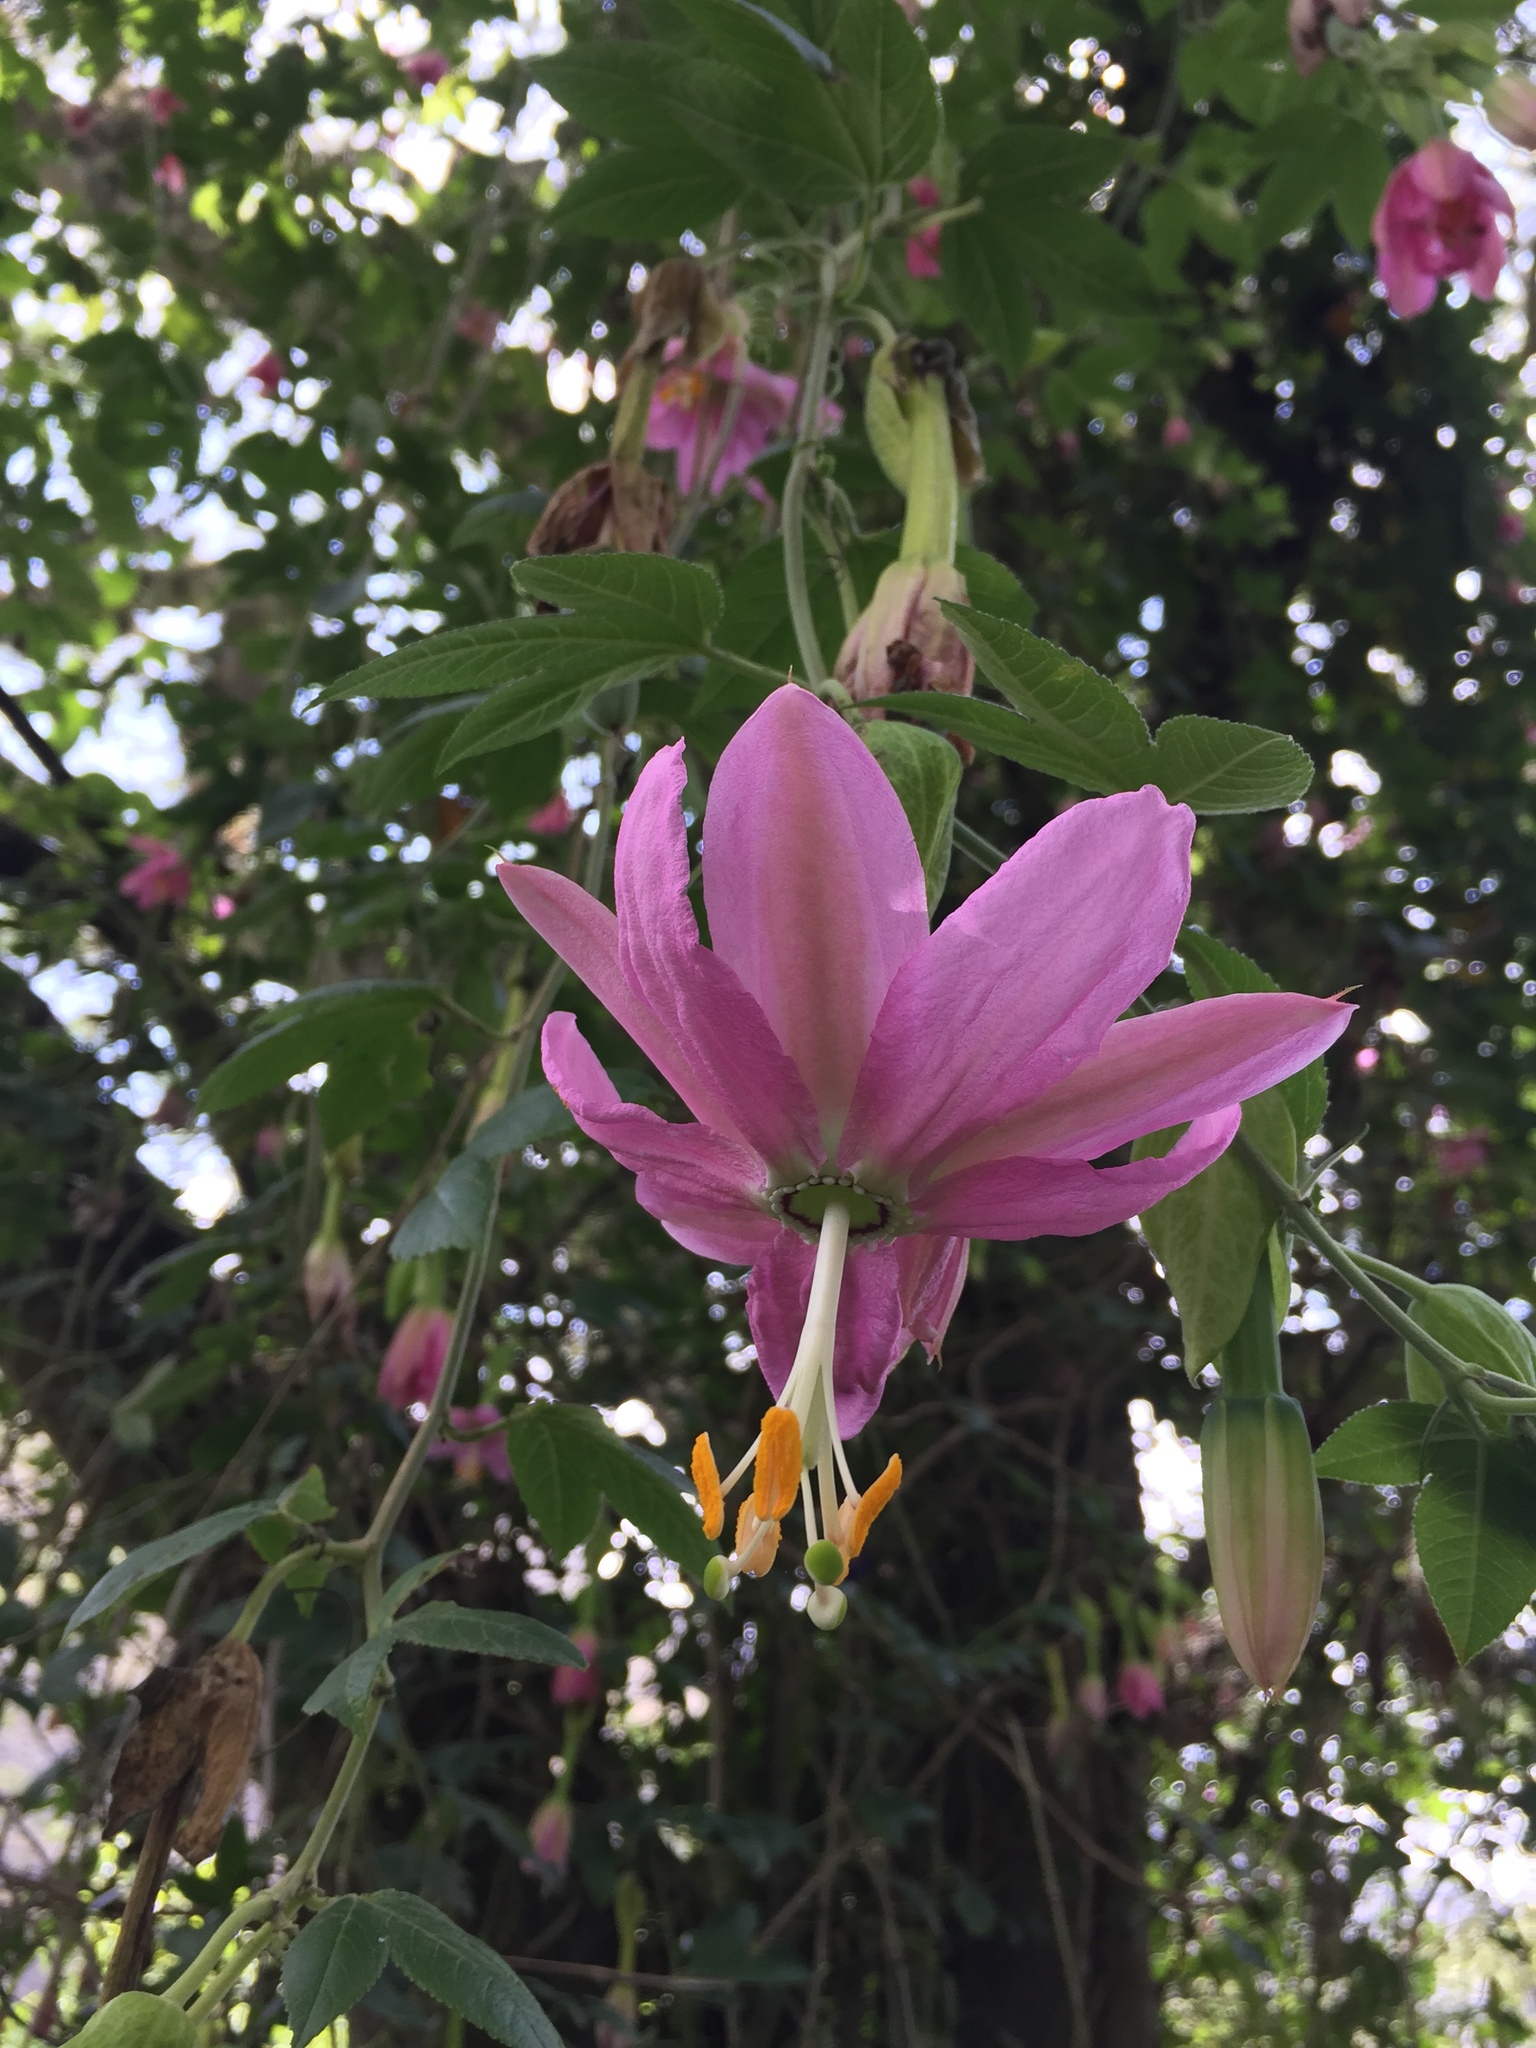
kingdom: Plantae
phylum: Tracheophyta
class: Magnoliopsida
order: Malpighiales
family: Passifloraceae
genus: Passiflora
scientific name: Passiflora tarminiana
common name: Banana poka
